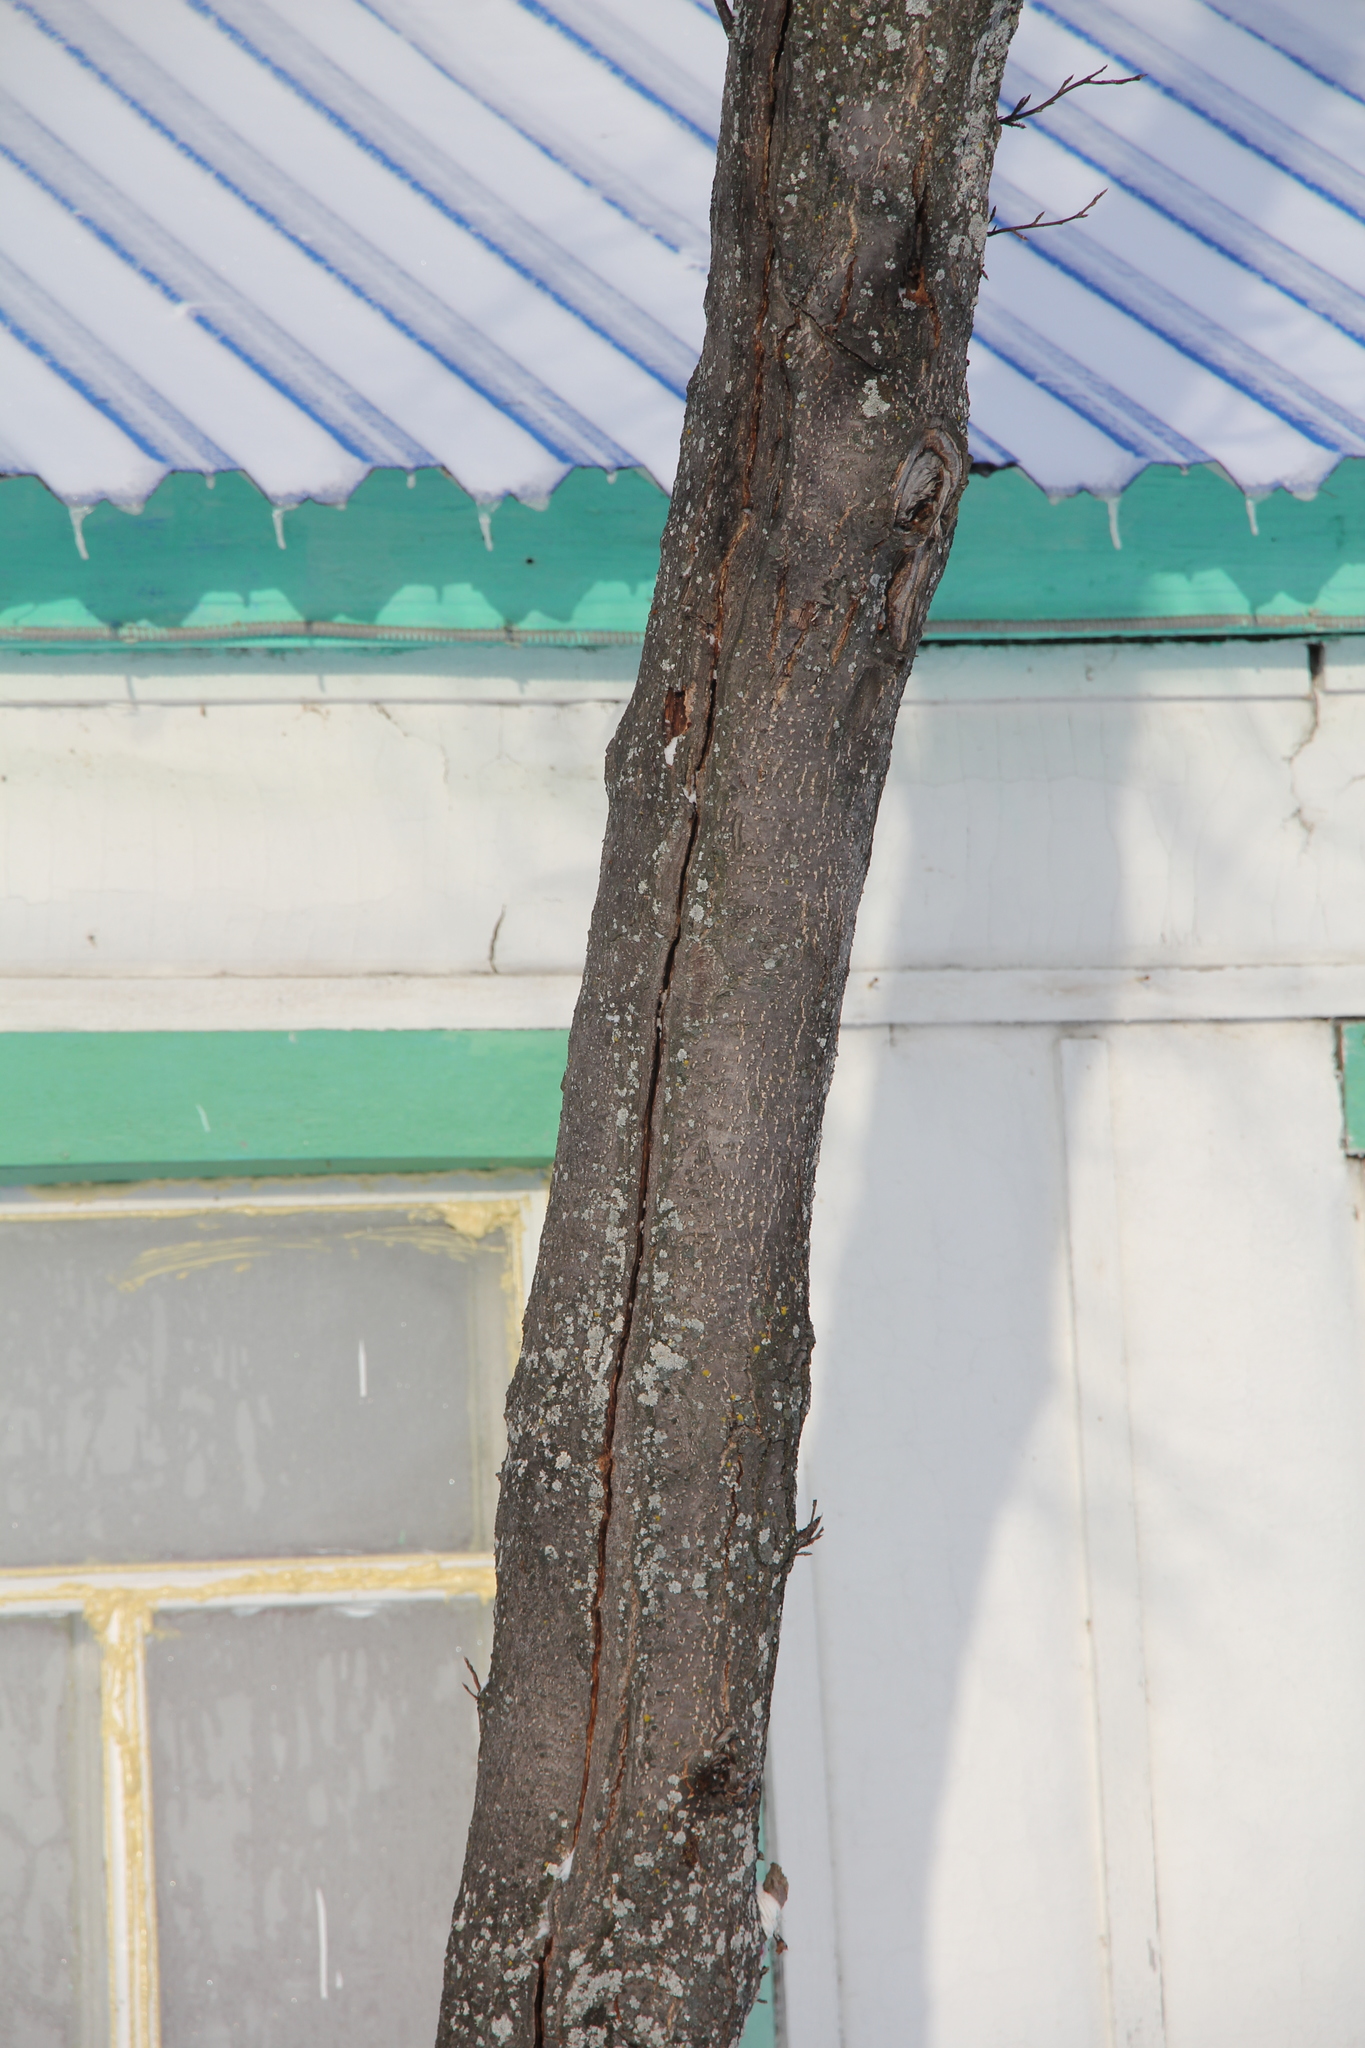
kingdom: Plantae
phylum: Tracheophyta
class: Magnoliopsida
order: Rosales
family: Rosaceae
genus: Prunus
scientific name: Prunus padus
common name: Bird cherry
